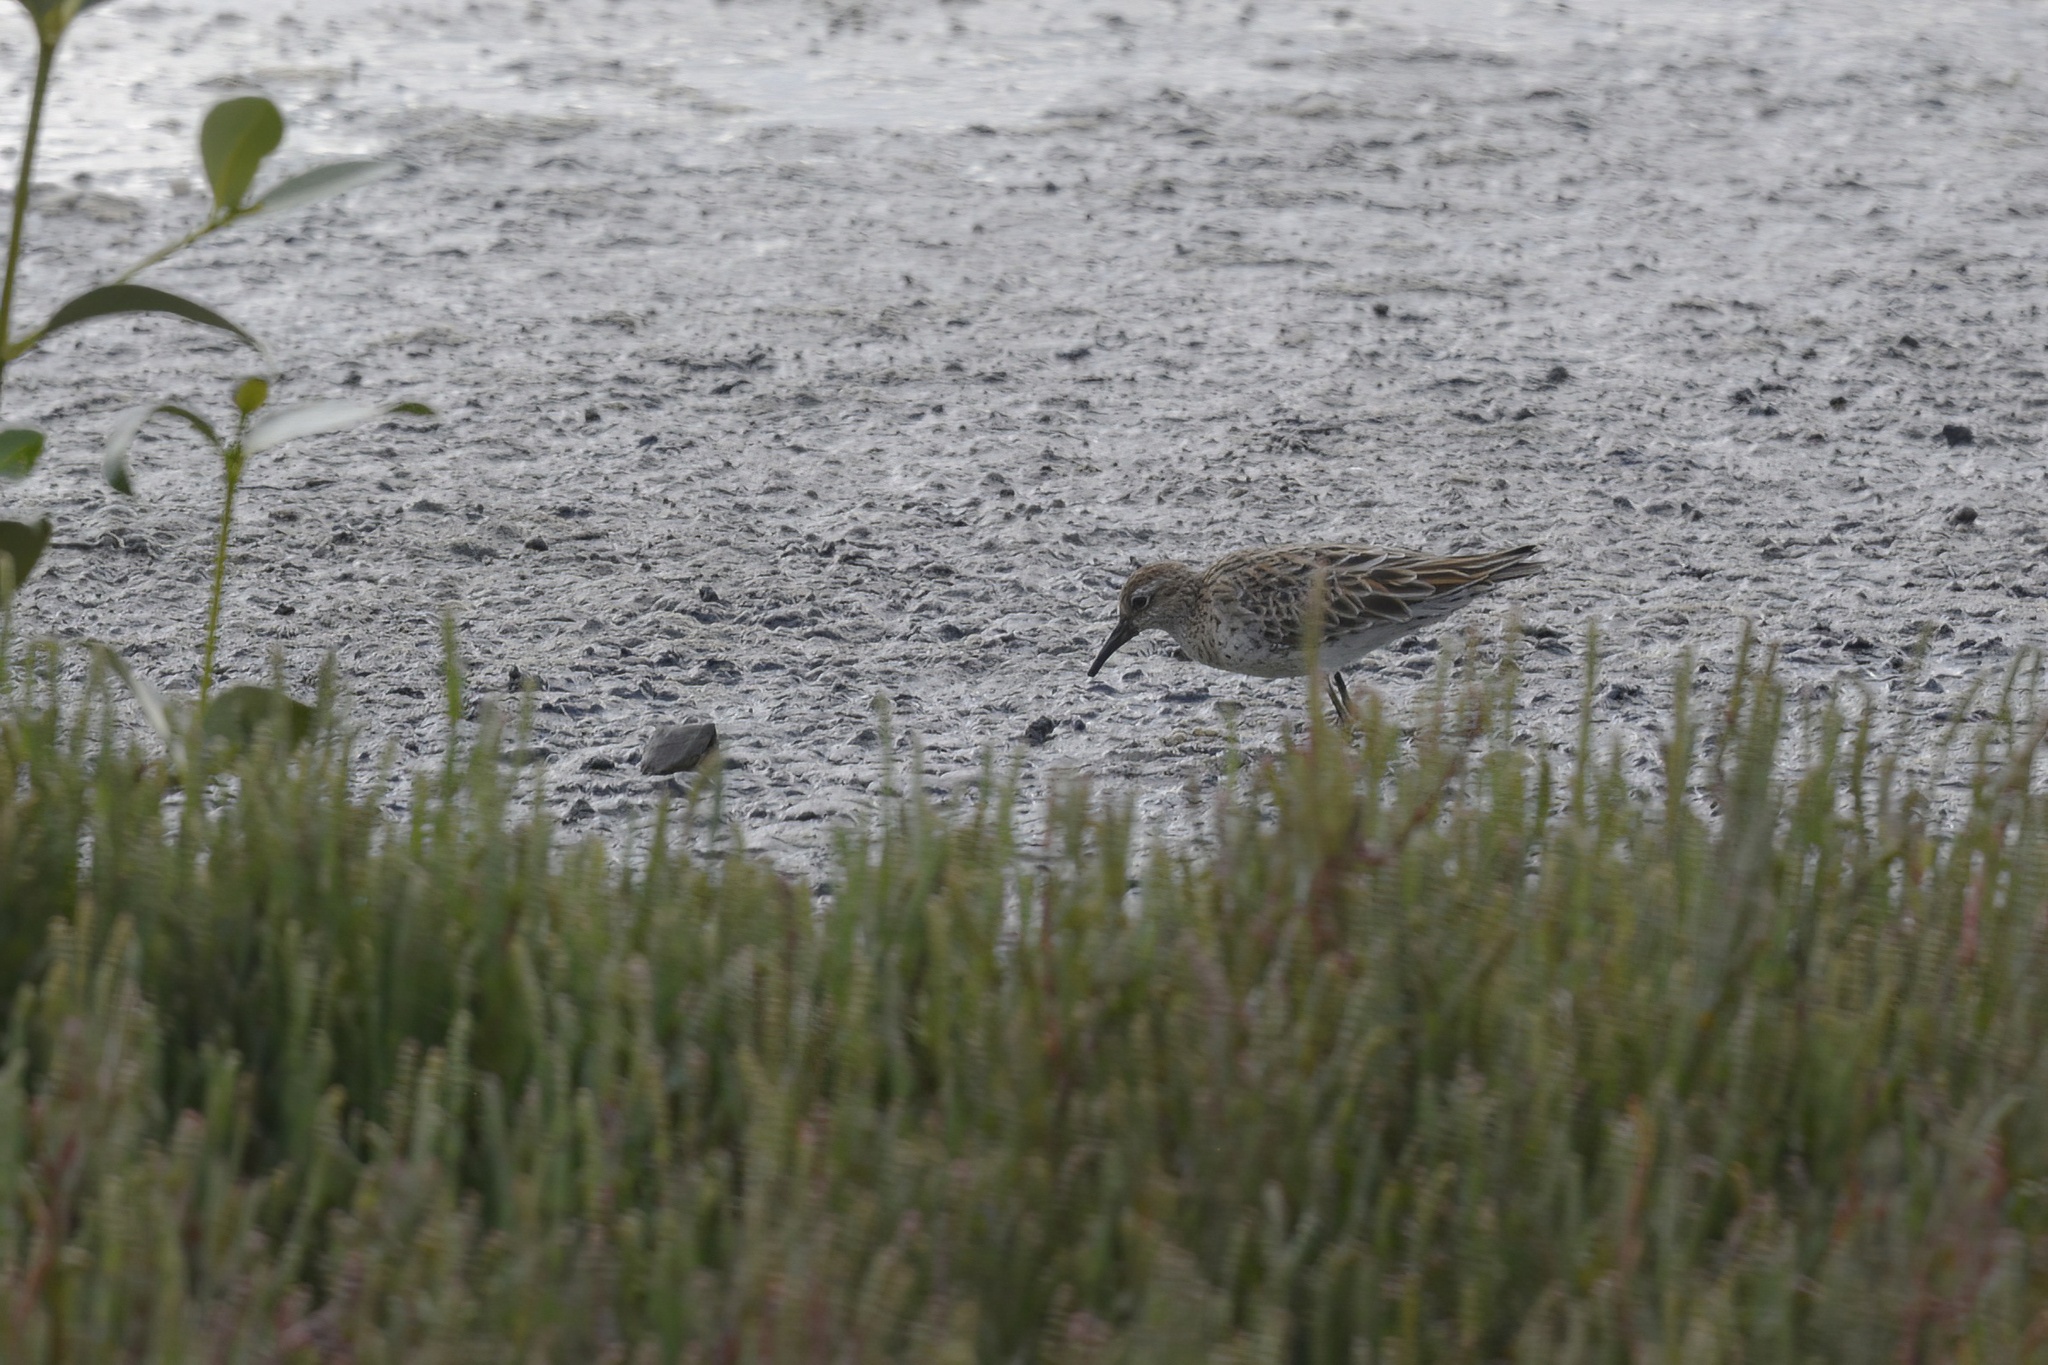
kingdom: Animalia
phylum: Chordata
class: Aves
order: Charadriiformes
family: Scolopacidae
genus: Calidris
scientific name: Calidris acuminata
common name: Sharp-tailed sandpiper
